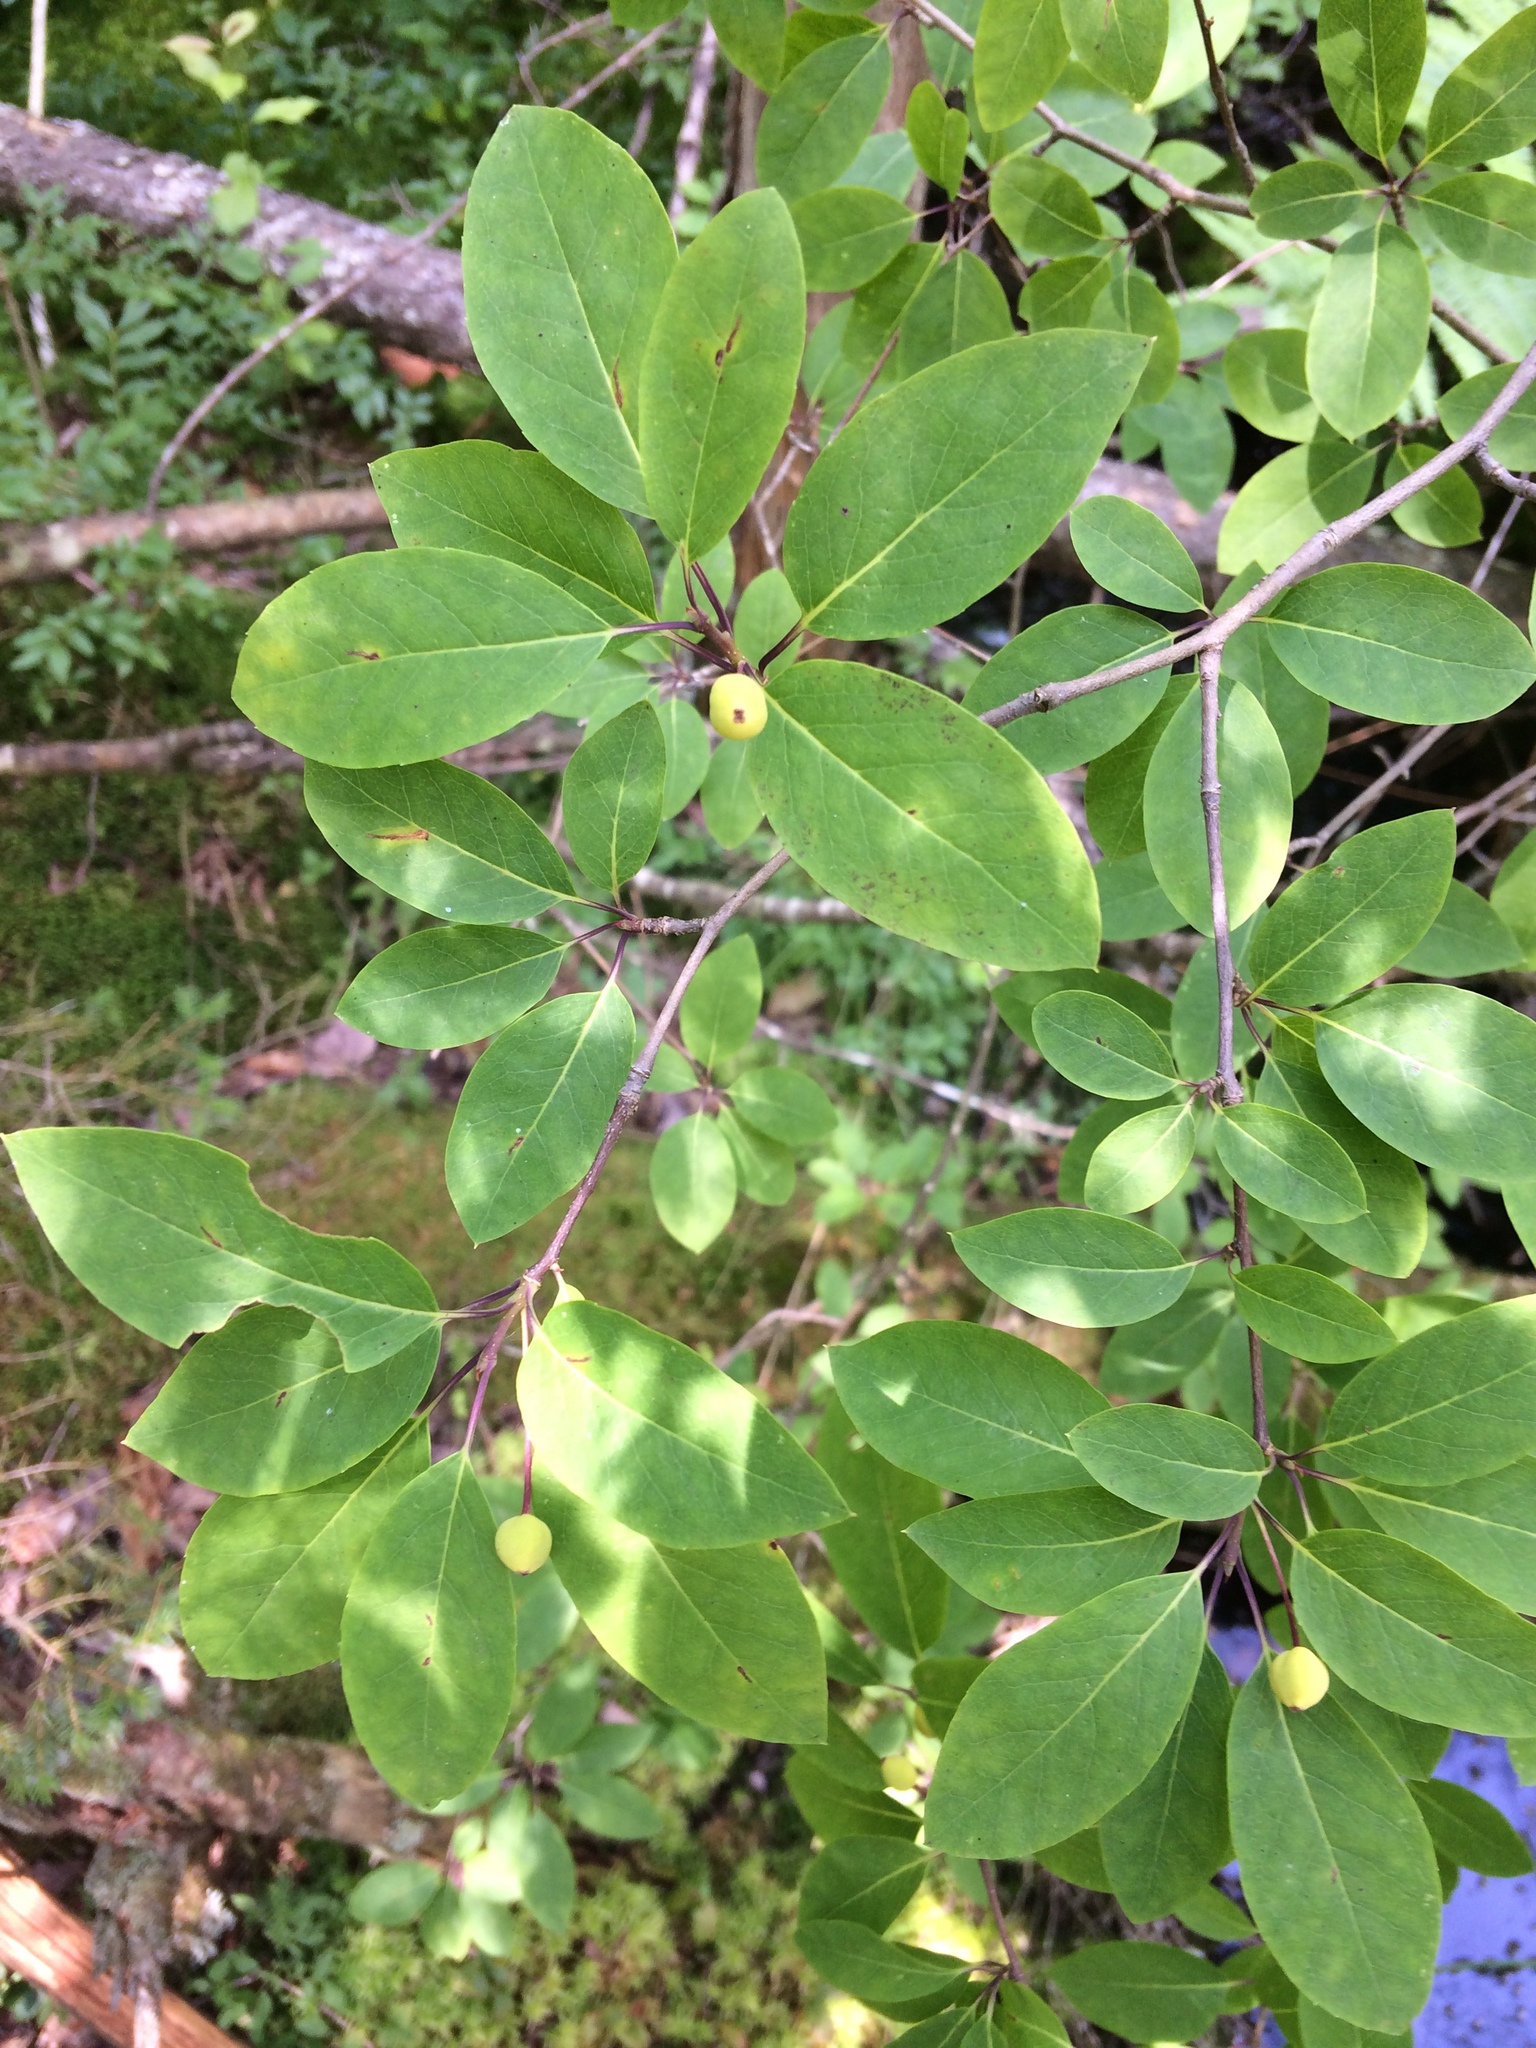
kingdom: Plantae
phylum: Tracheophyta
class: Magnoliopsida
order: Aquifoliales
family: Aquifoliaceae
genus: Ilex
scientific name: Ilex mucronata
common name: Catberry
